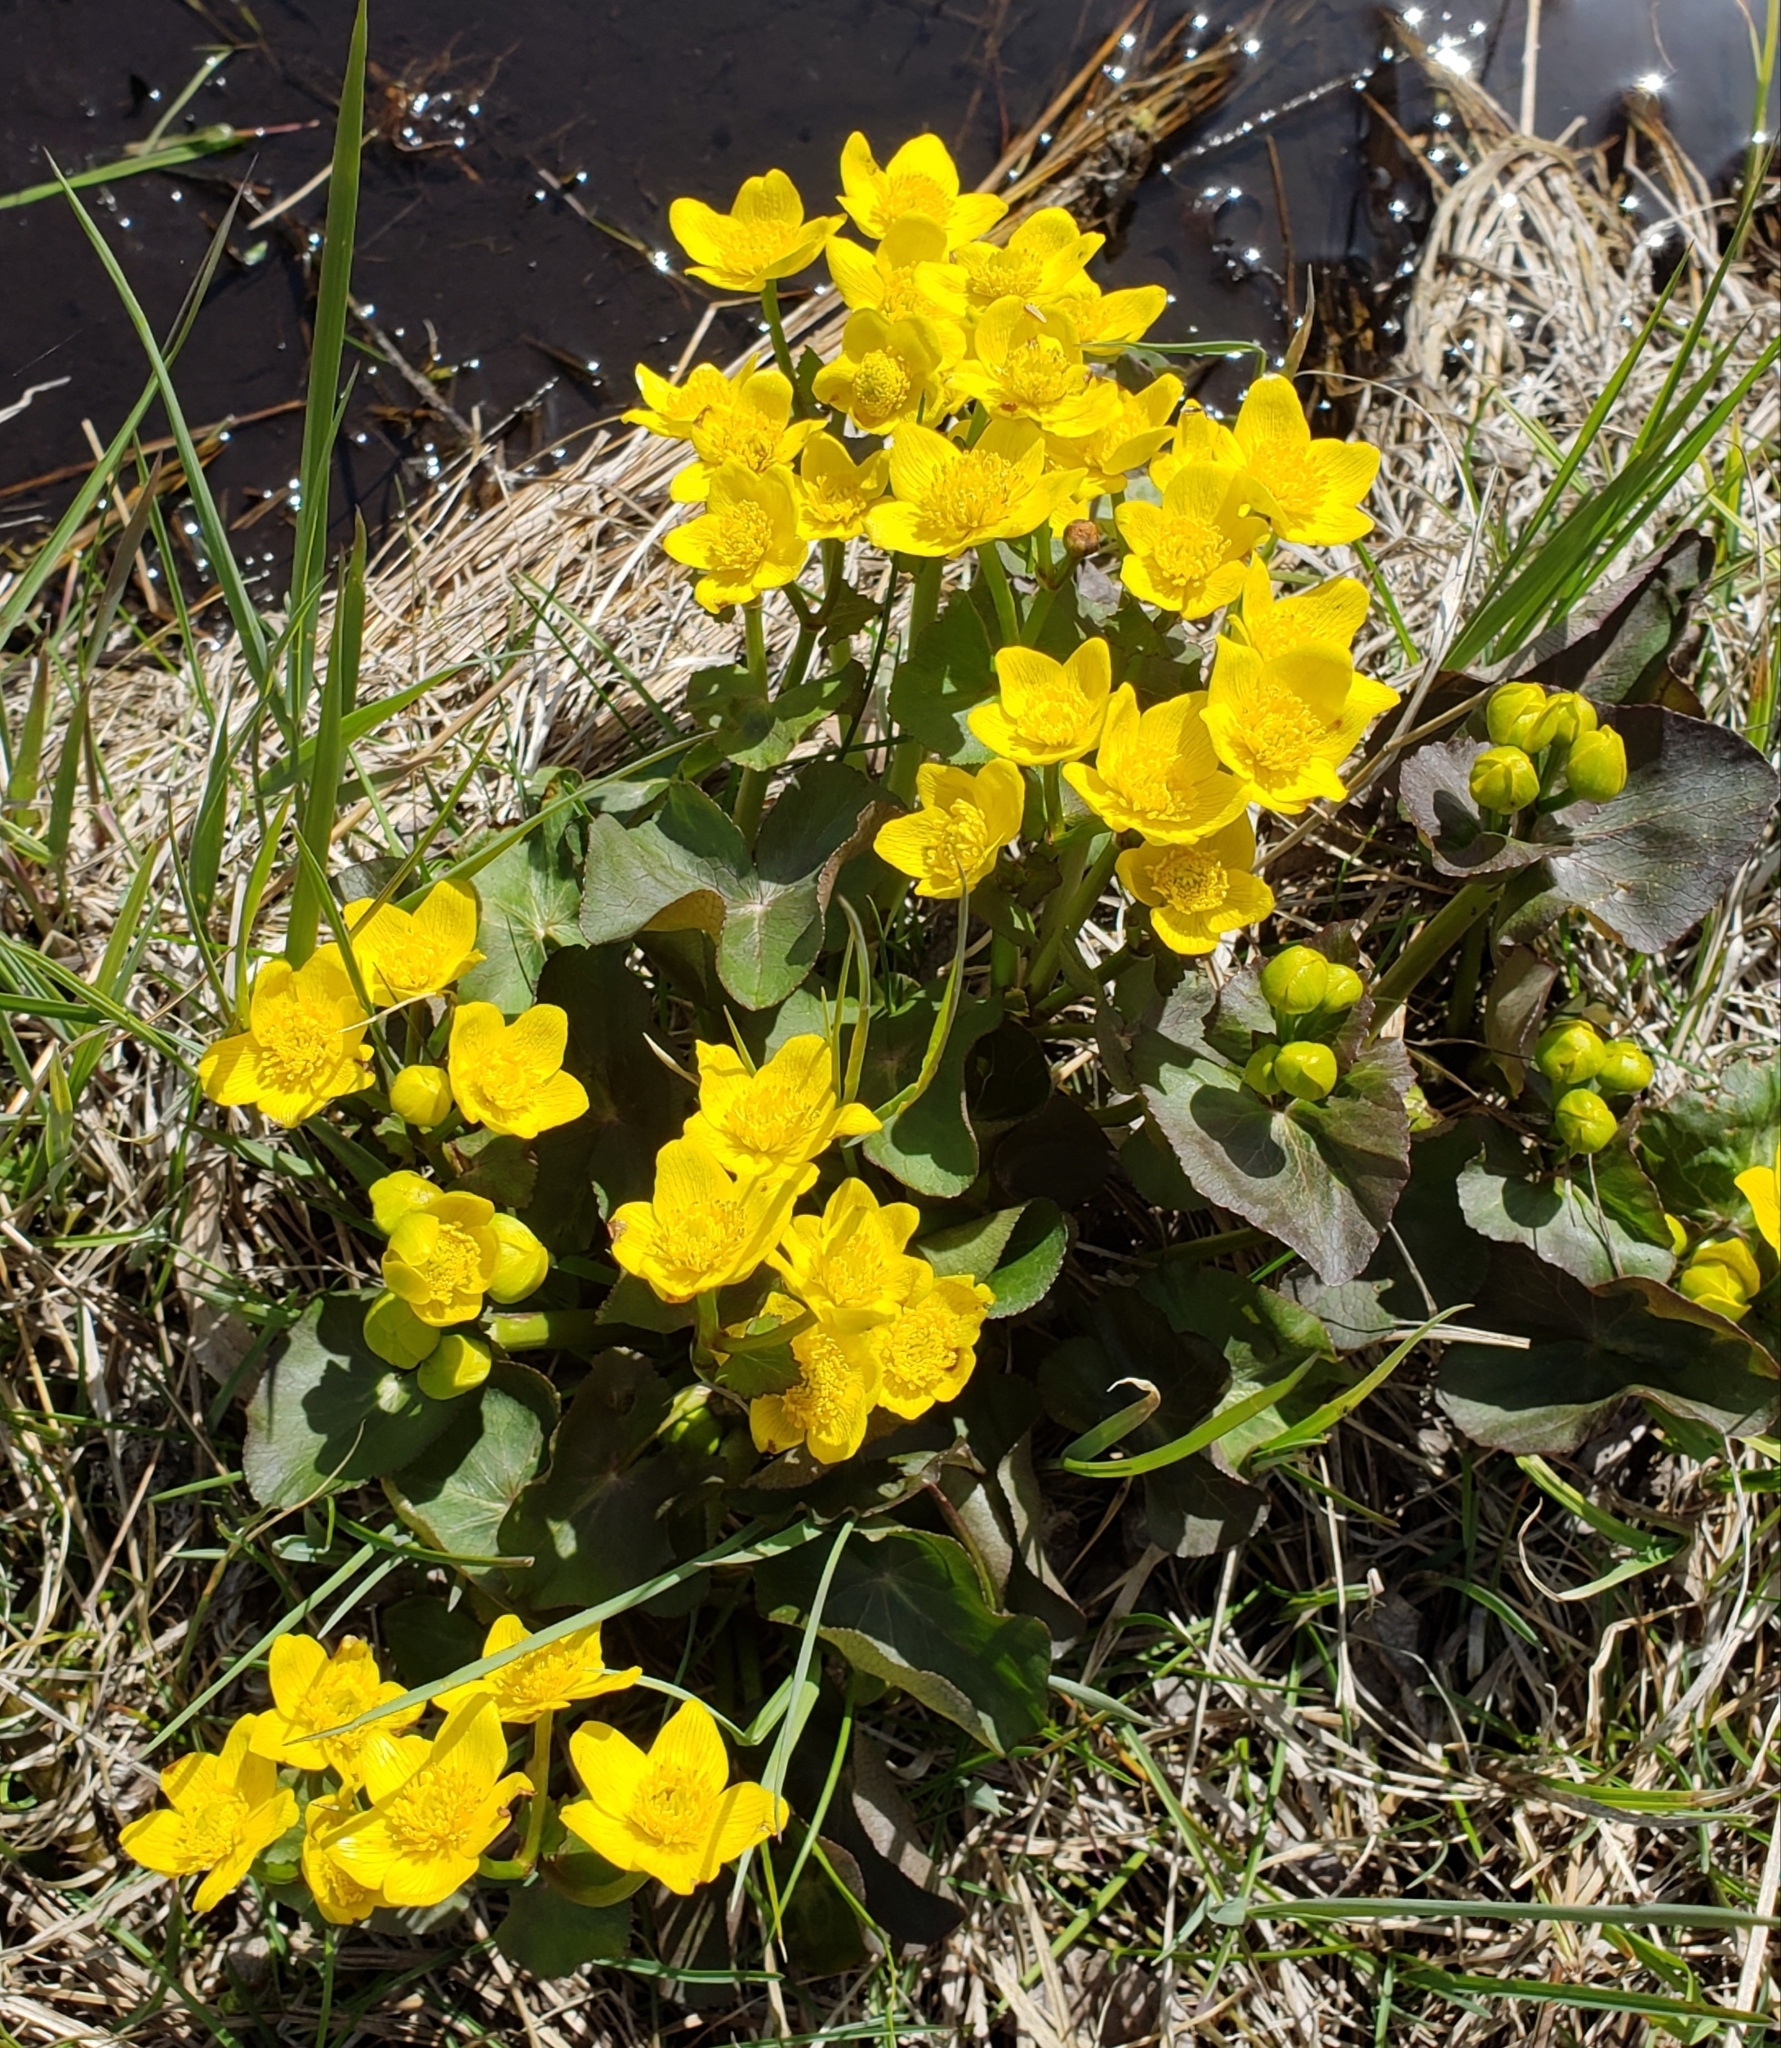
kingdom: Plantae
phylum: Tracheophyta
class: Magnoliopsida
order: Ranunculales
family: Ranunculaceae
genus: Caltha
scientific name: Caltha palustris
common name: Marsh marigold
